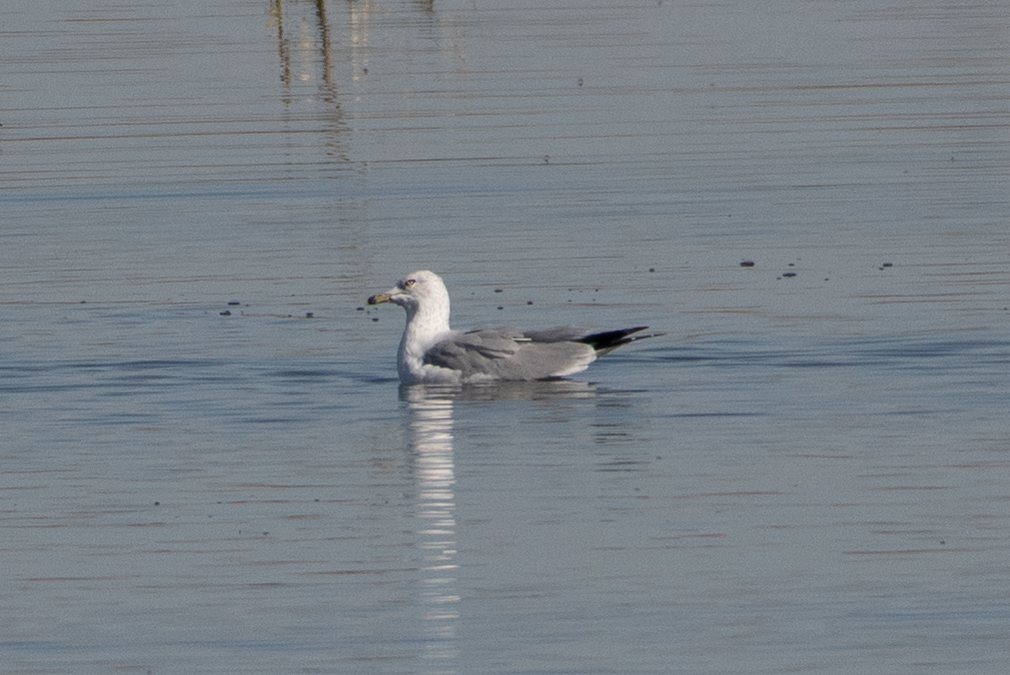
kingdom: Animalia
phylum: Chordata
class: Aves
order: Charadriiformes
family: Laridae
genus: Larus
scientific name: Larus delawarensis
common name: Ring-billed gull
